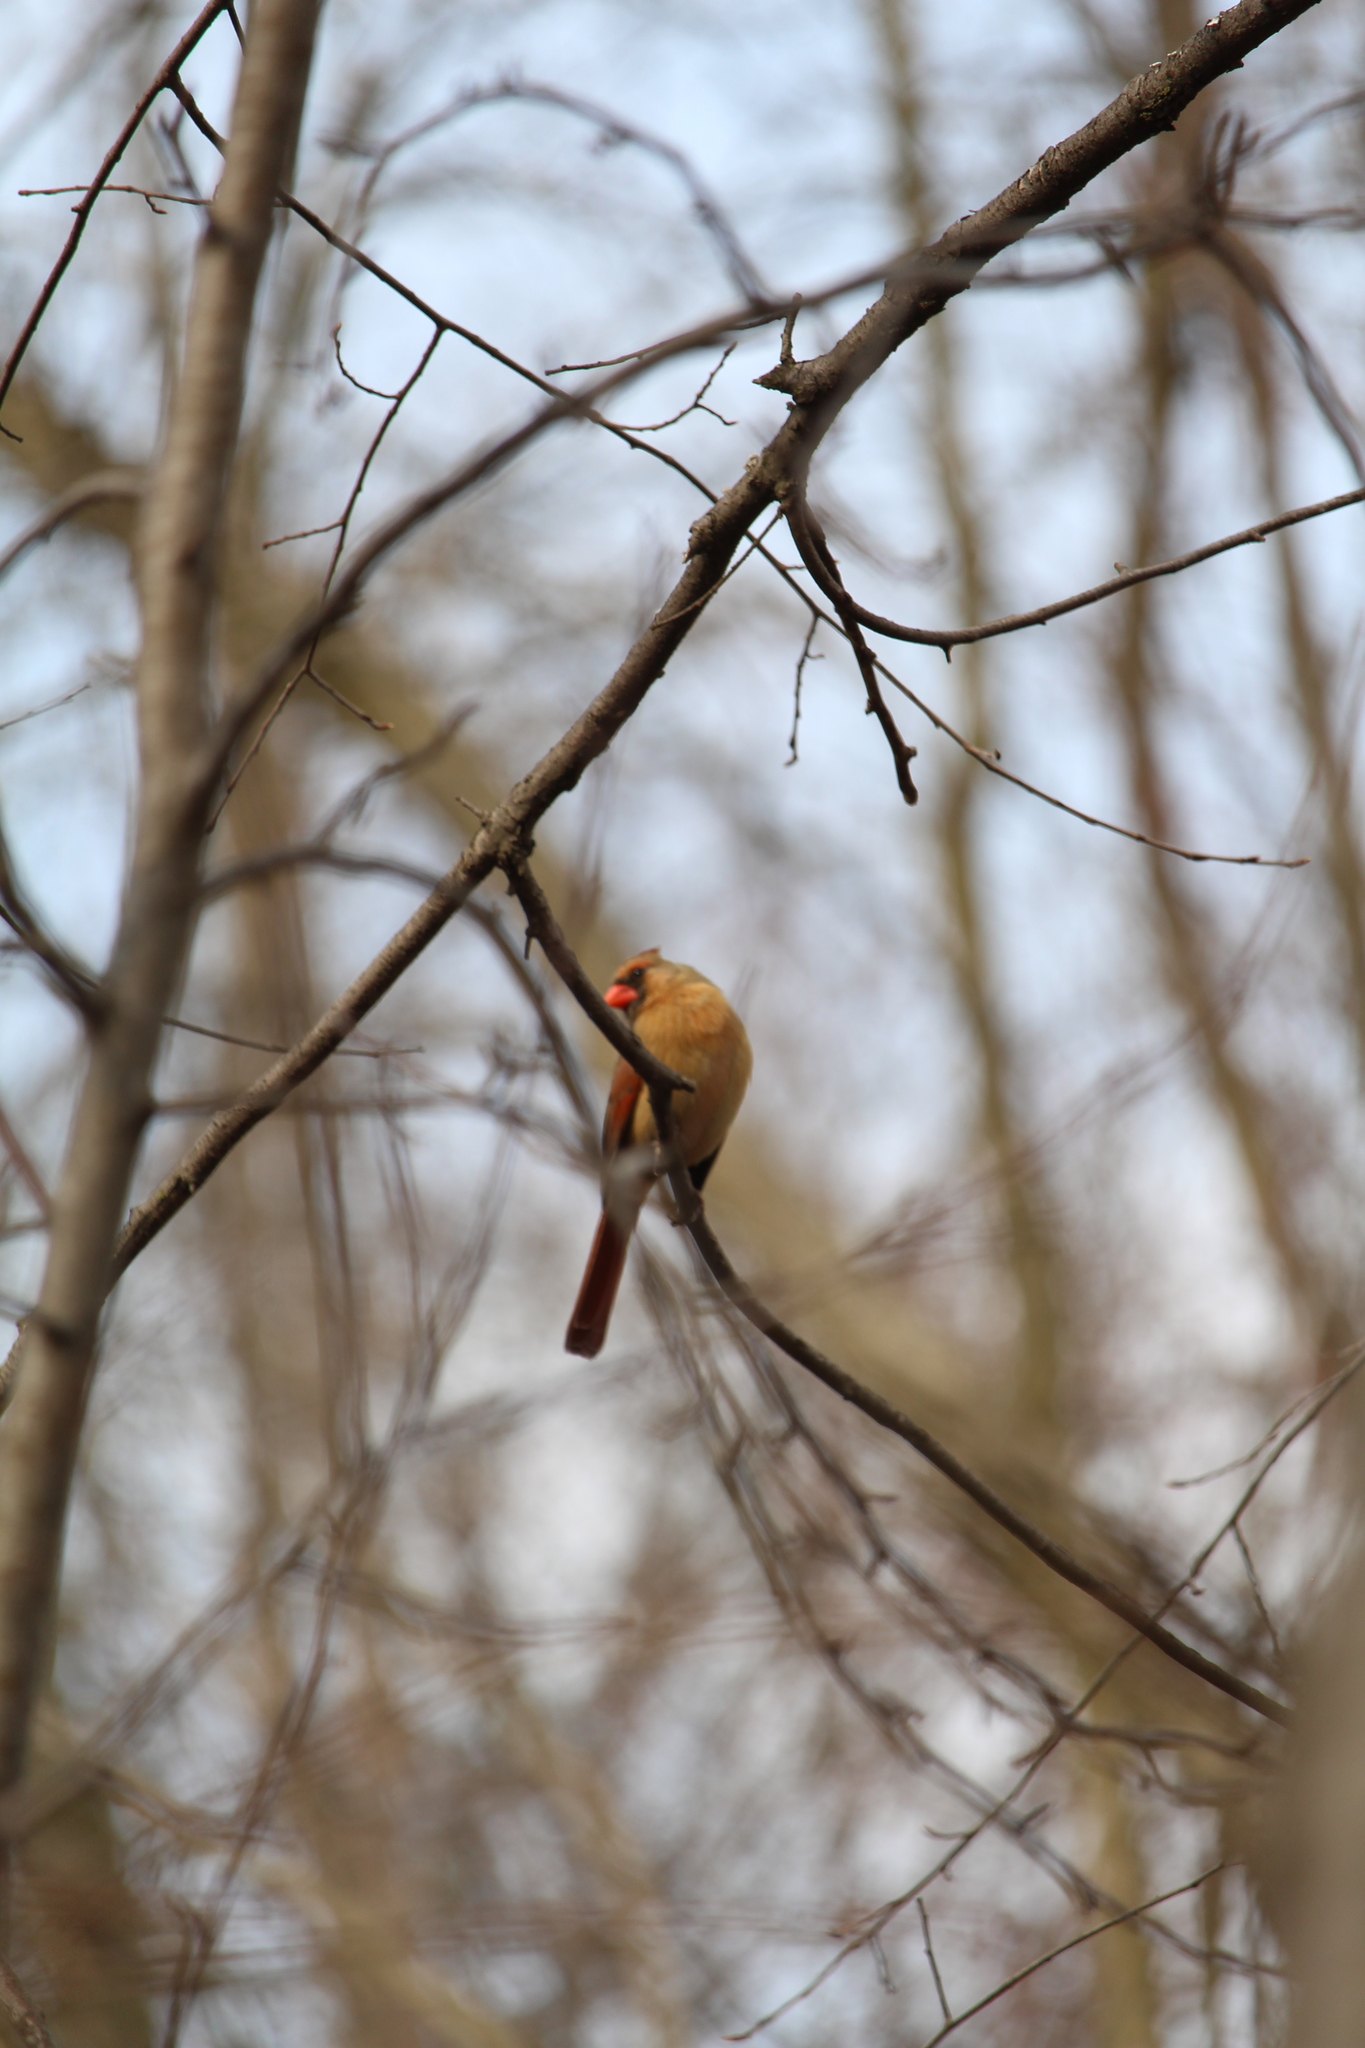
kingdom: Animalia
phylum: Chordata
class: Aves
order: Passeriformes
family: Cardinalidae
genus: Cardinalis
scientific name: Cardinalis cardinalis
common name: Northern cardinal
